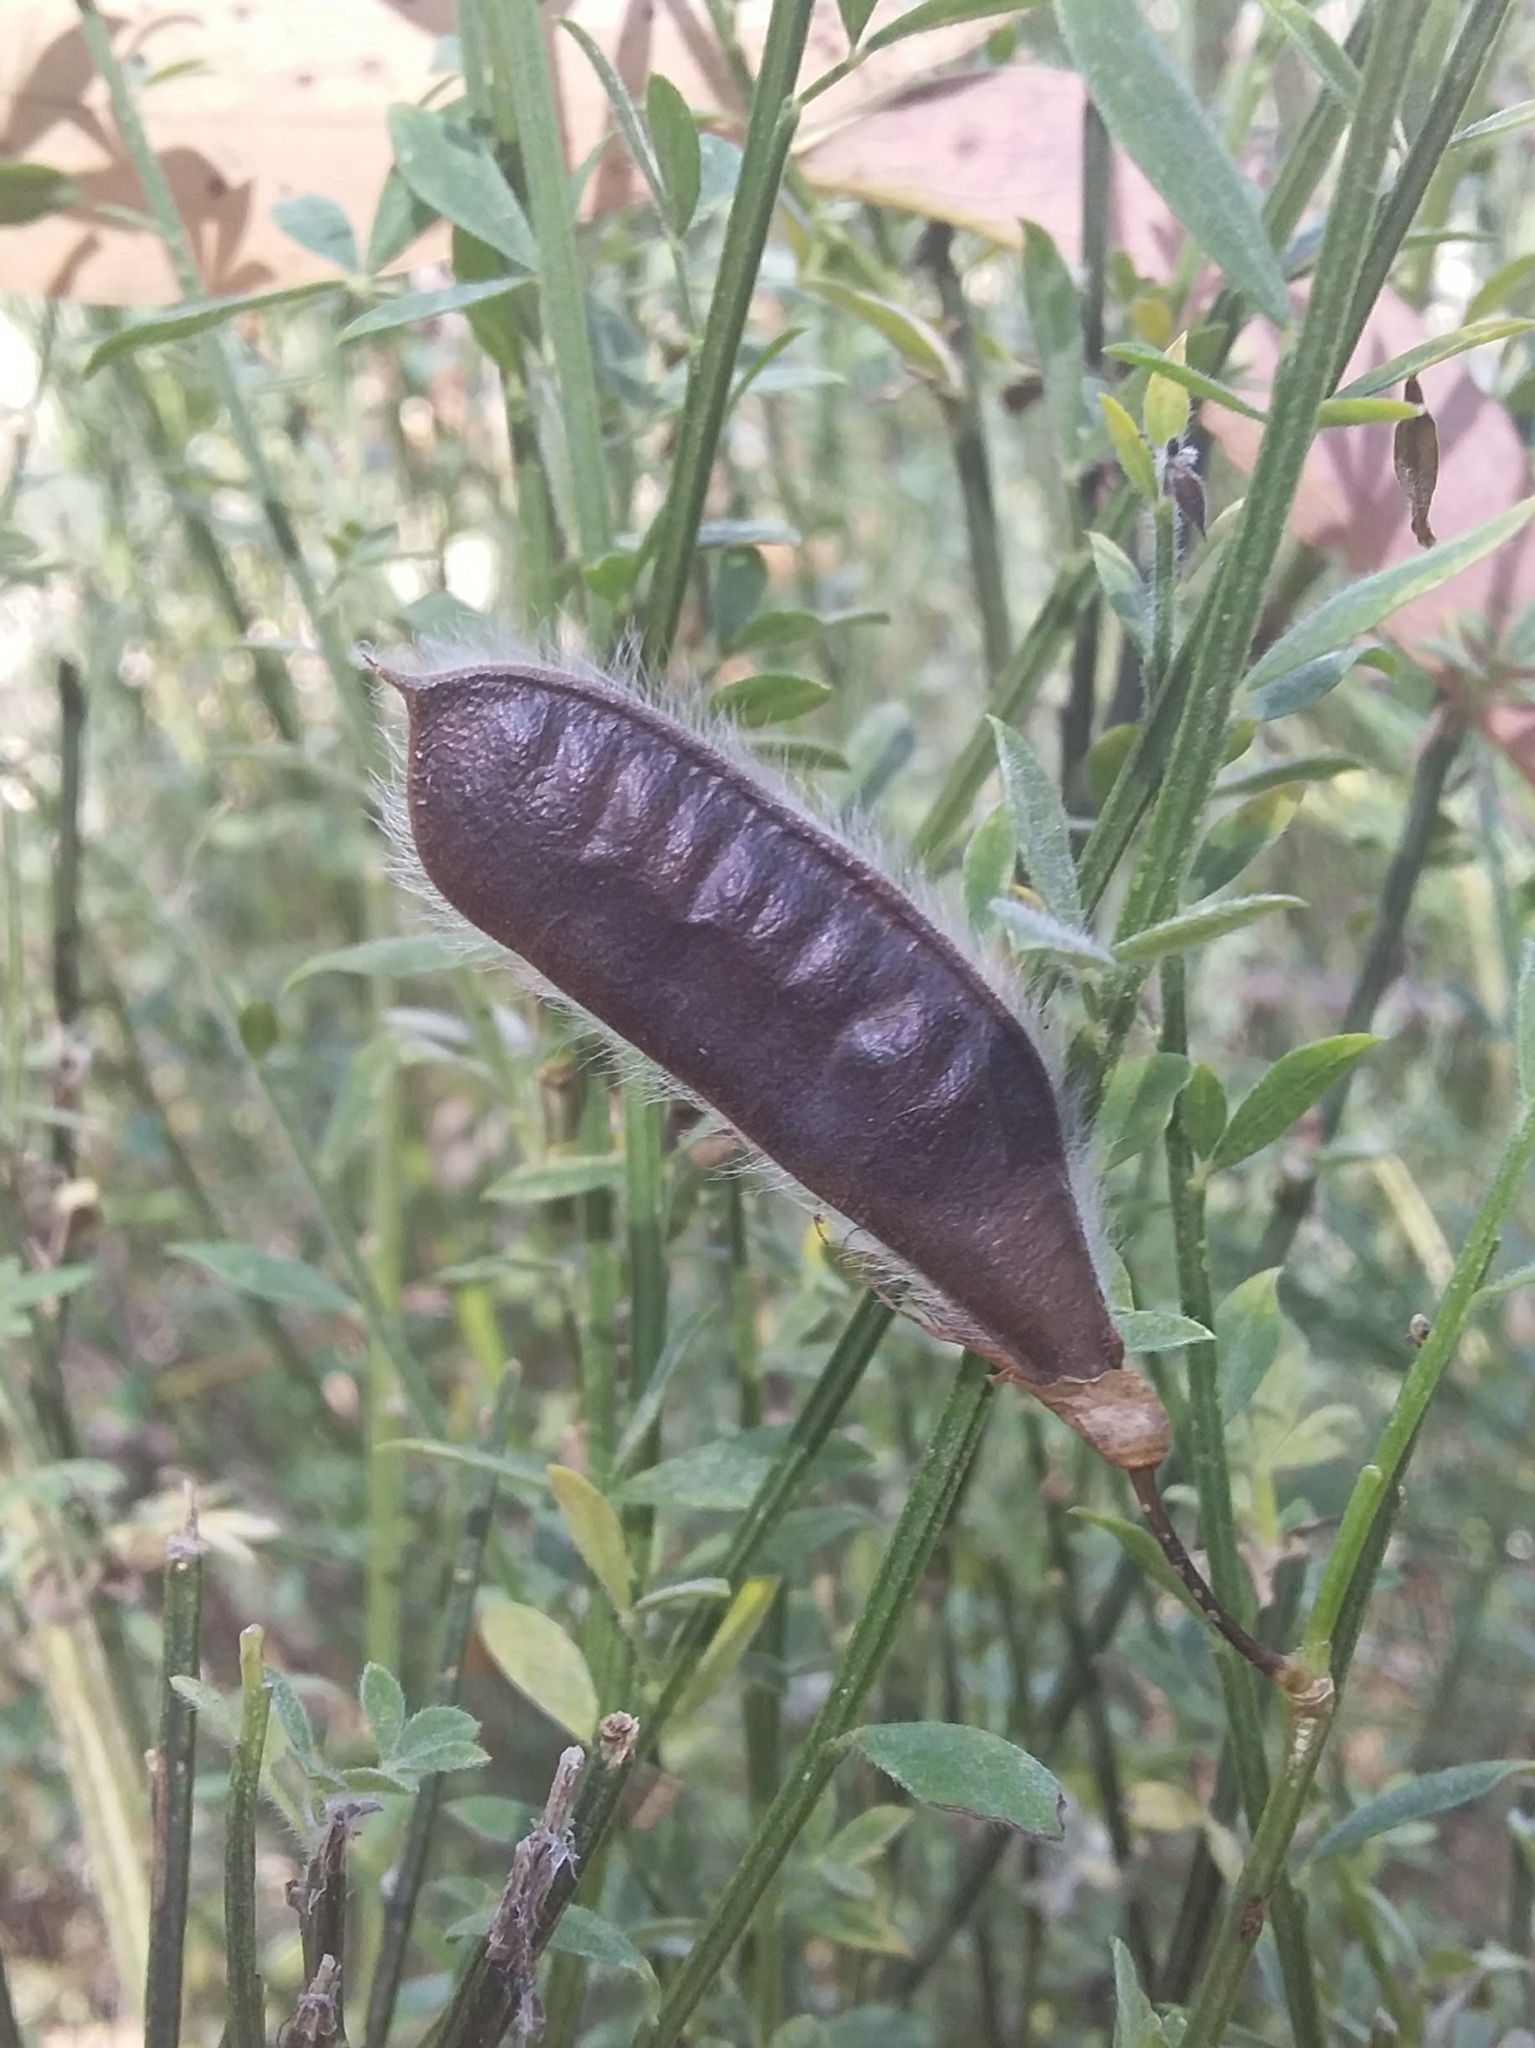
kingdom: Plantae
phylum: Tracheophyta
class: Magnoliopsida
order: Fabales
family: Fabaceae
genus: Cytisus
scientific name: Cytisus scoparius
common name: Scotch broom
